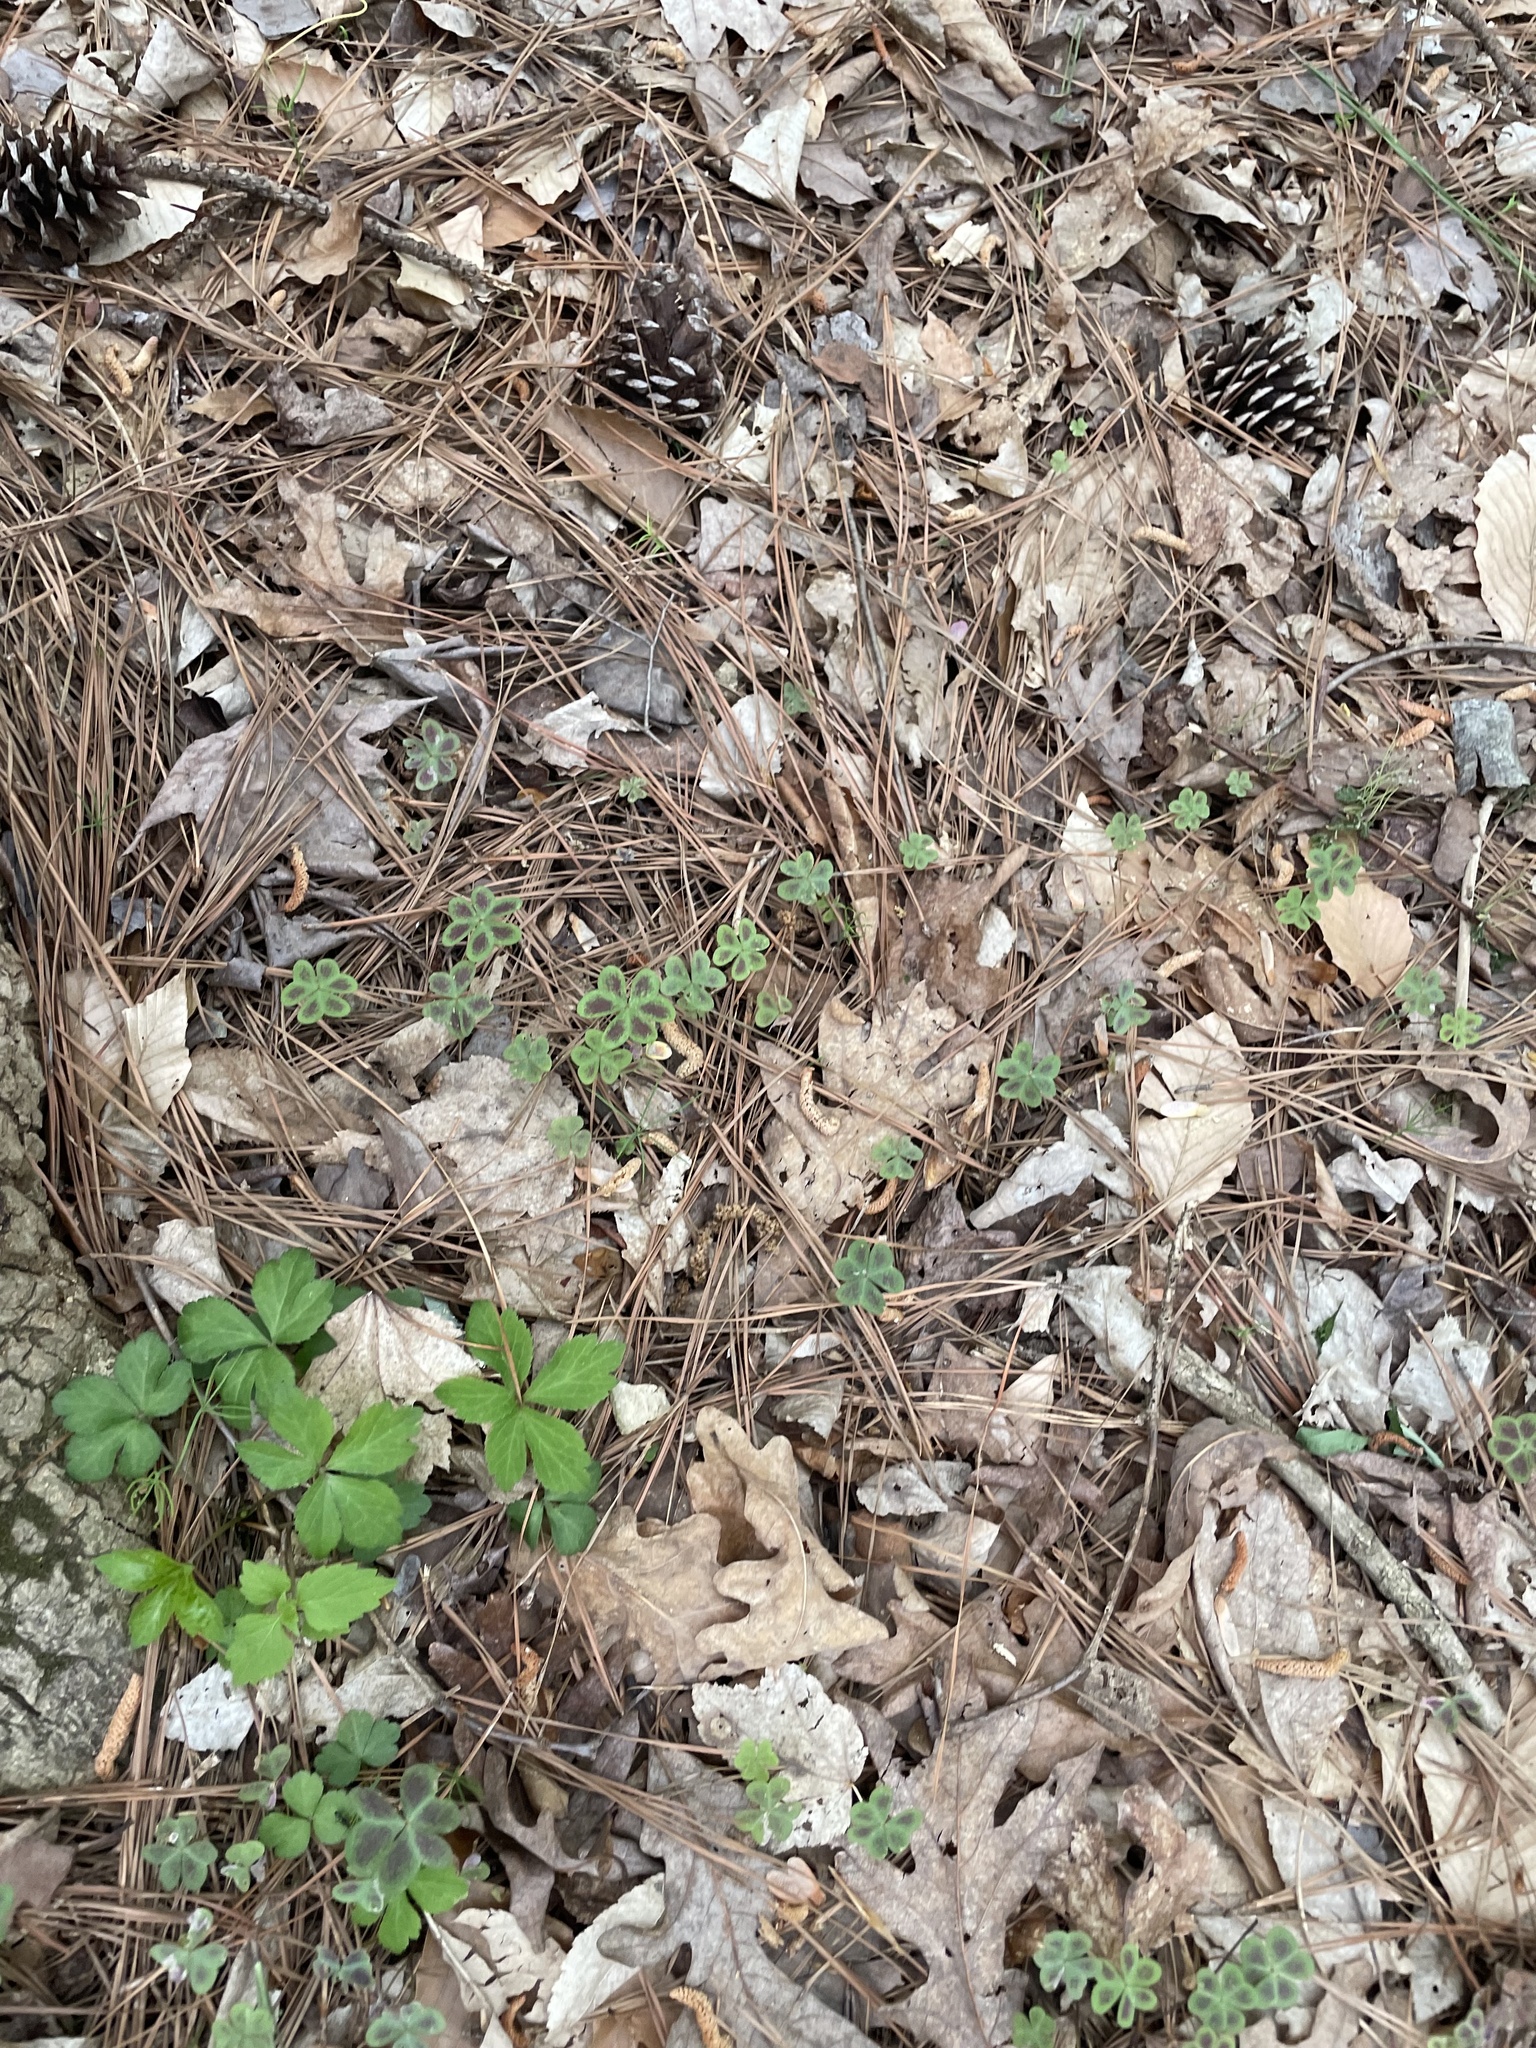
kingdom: Plantae
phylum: Tracheophyta
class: Magnoliopsida
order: Oxalidales
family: Oxalidaceae
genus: Oxalis
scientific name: Oxalis violacea
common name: Violet wood-sorrel
